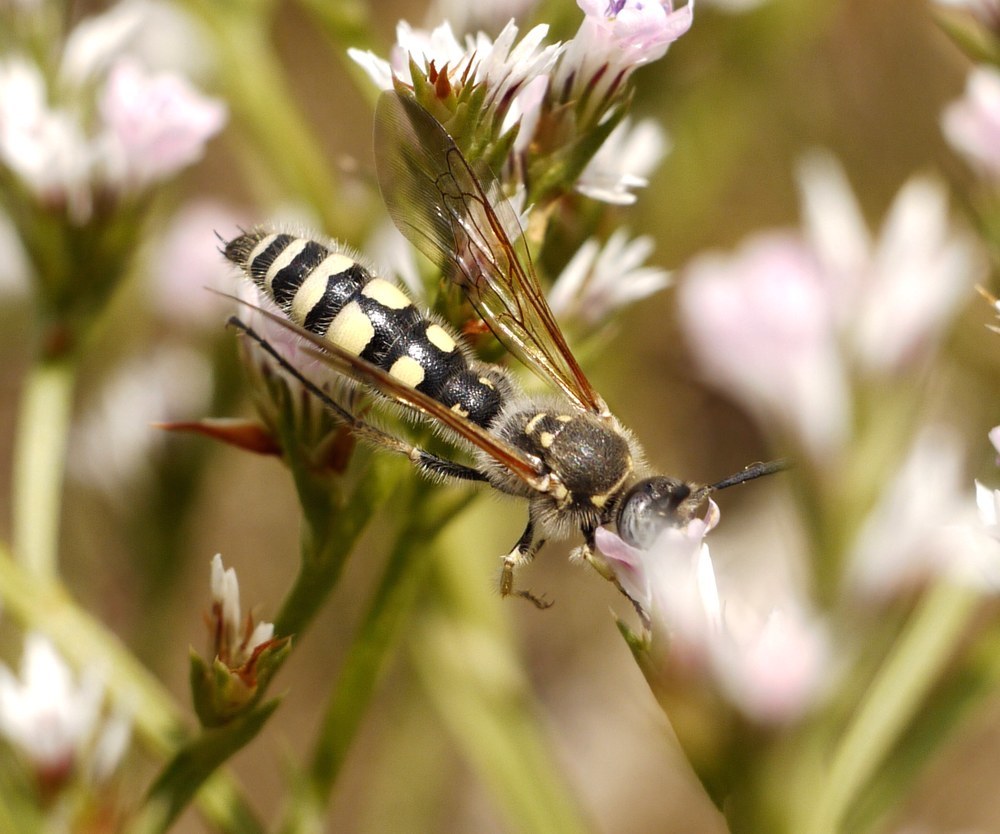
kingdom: Animalia
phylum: Arthropoda
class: Insecta
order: Hymenoptera
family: Vespidae
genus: Vespa
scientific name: Vespa sexmaculata
